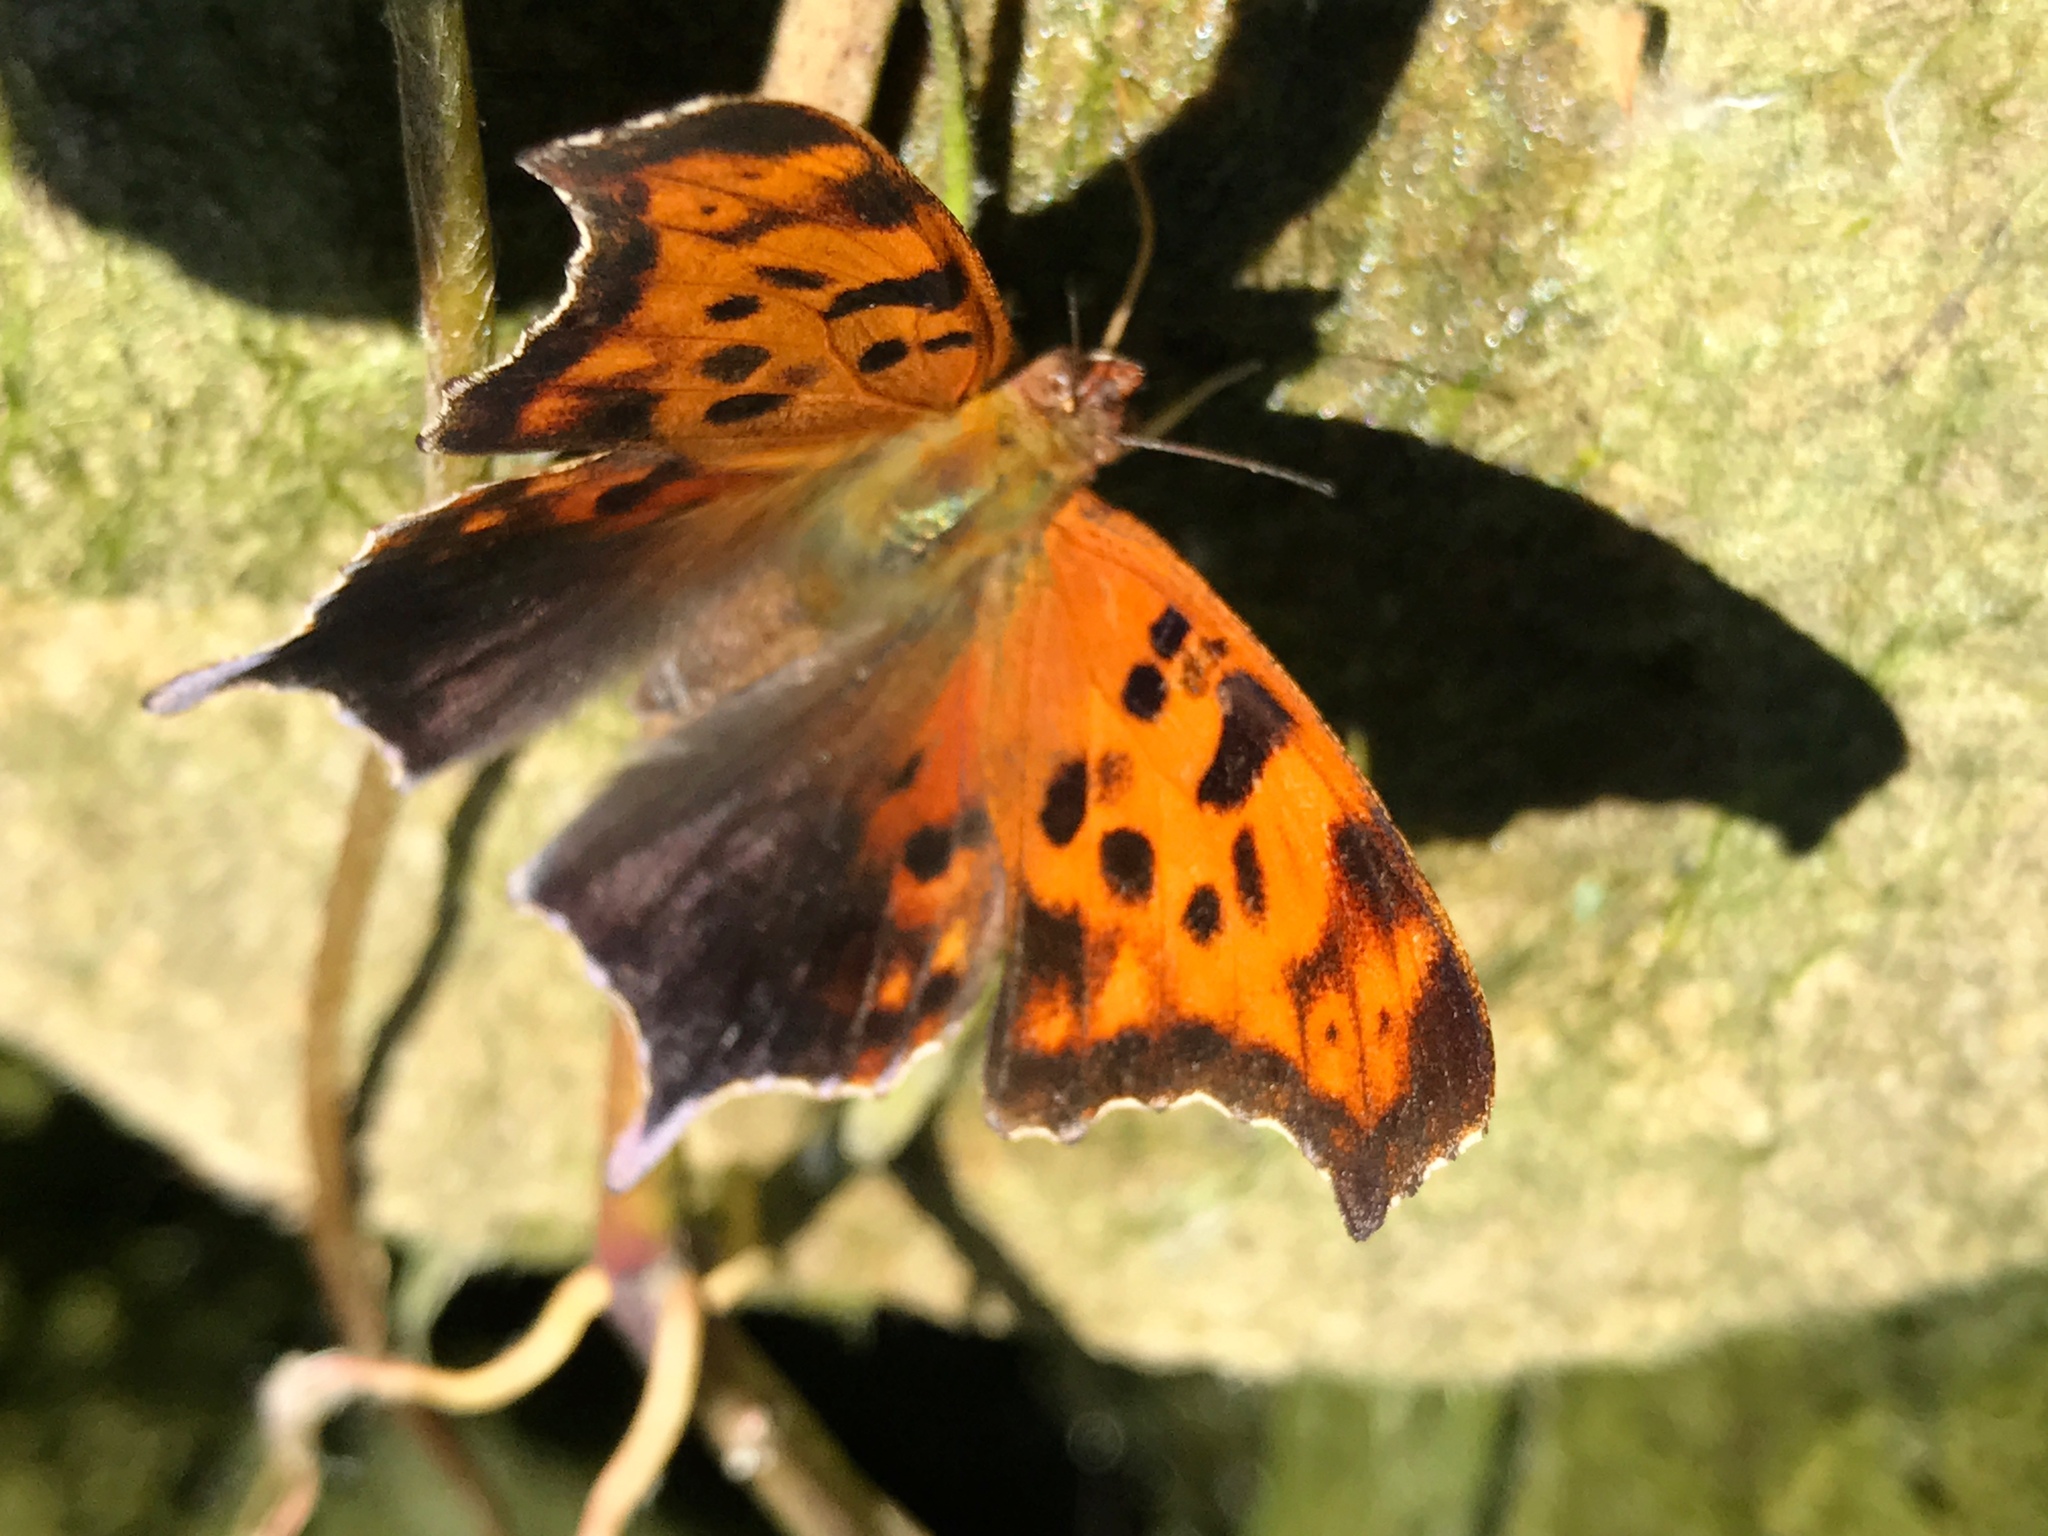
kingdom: Animalia
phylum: Arthropoda
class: Insecta
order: Lepidoptera
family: Nymphalidae
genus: Polygonia
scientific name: Polygonia interrogationis
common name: Question mark
